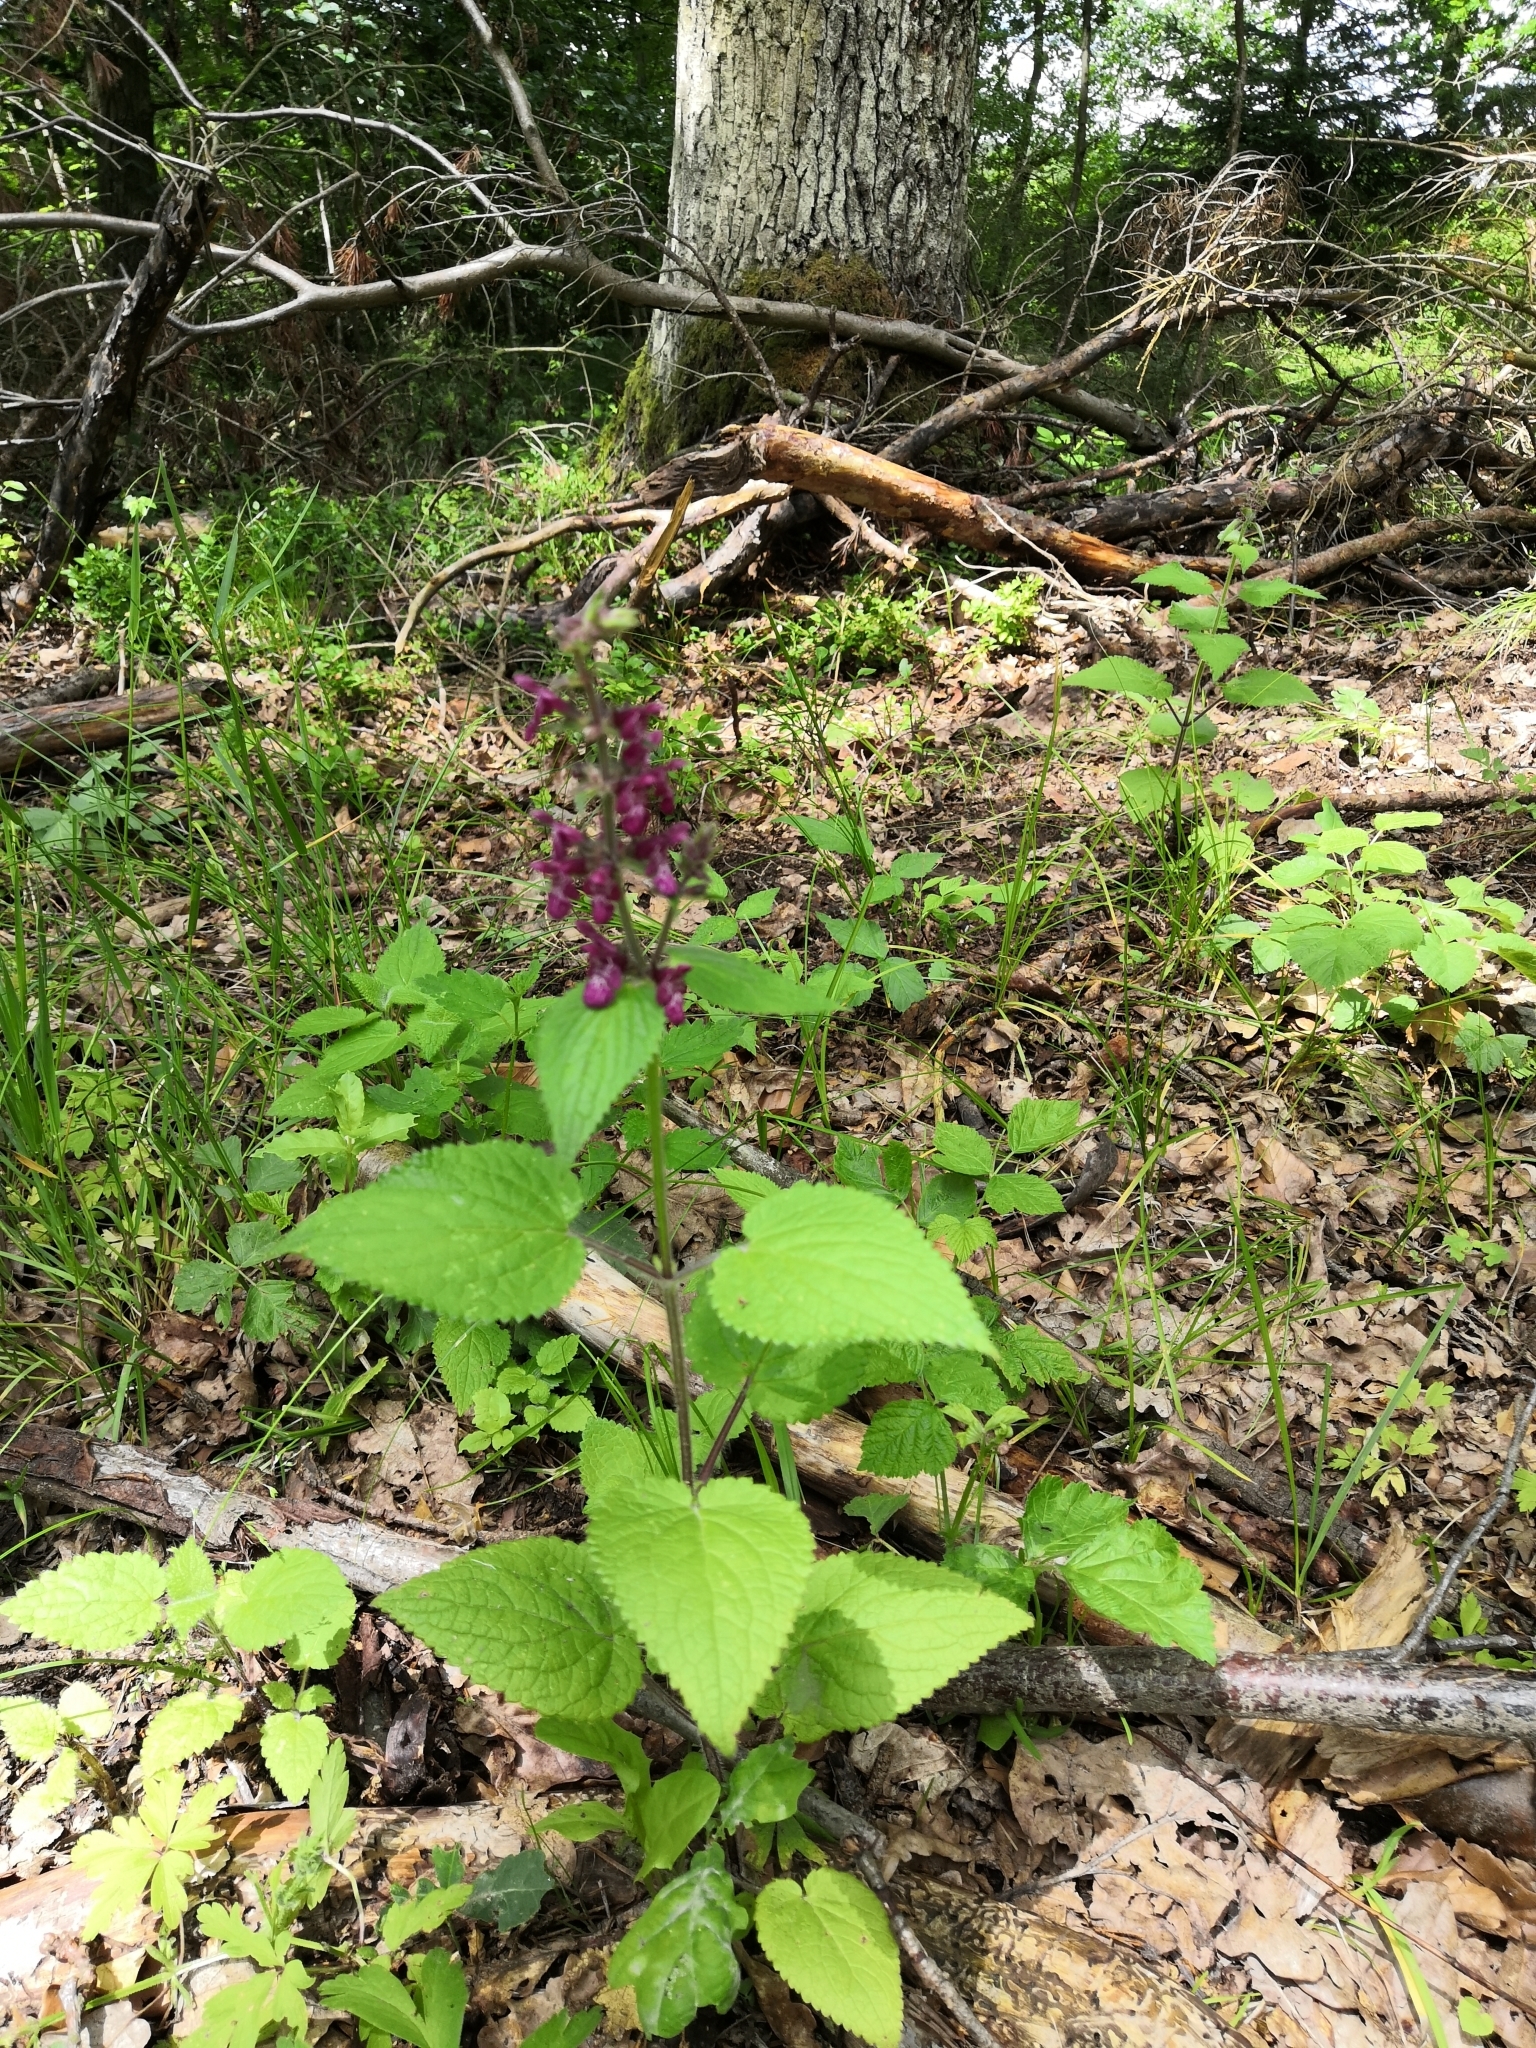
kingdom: Plantae
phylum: Tracheophyta
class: Magnoliopsida
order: Lamiales
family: Lamiaceae
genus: Stachys
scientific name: Stachys sylvatica
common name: Hedge woundwort
